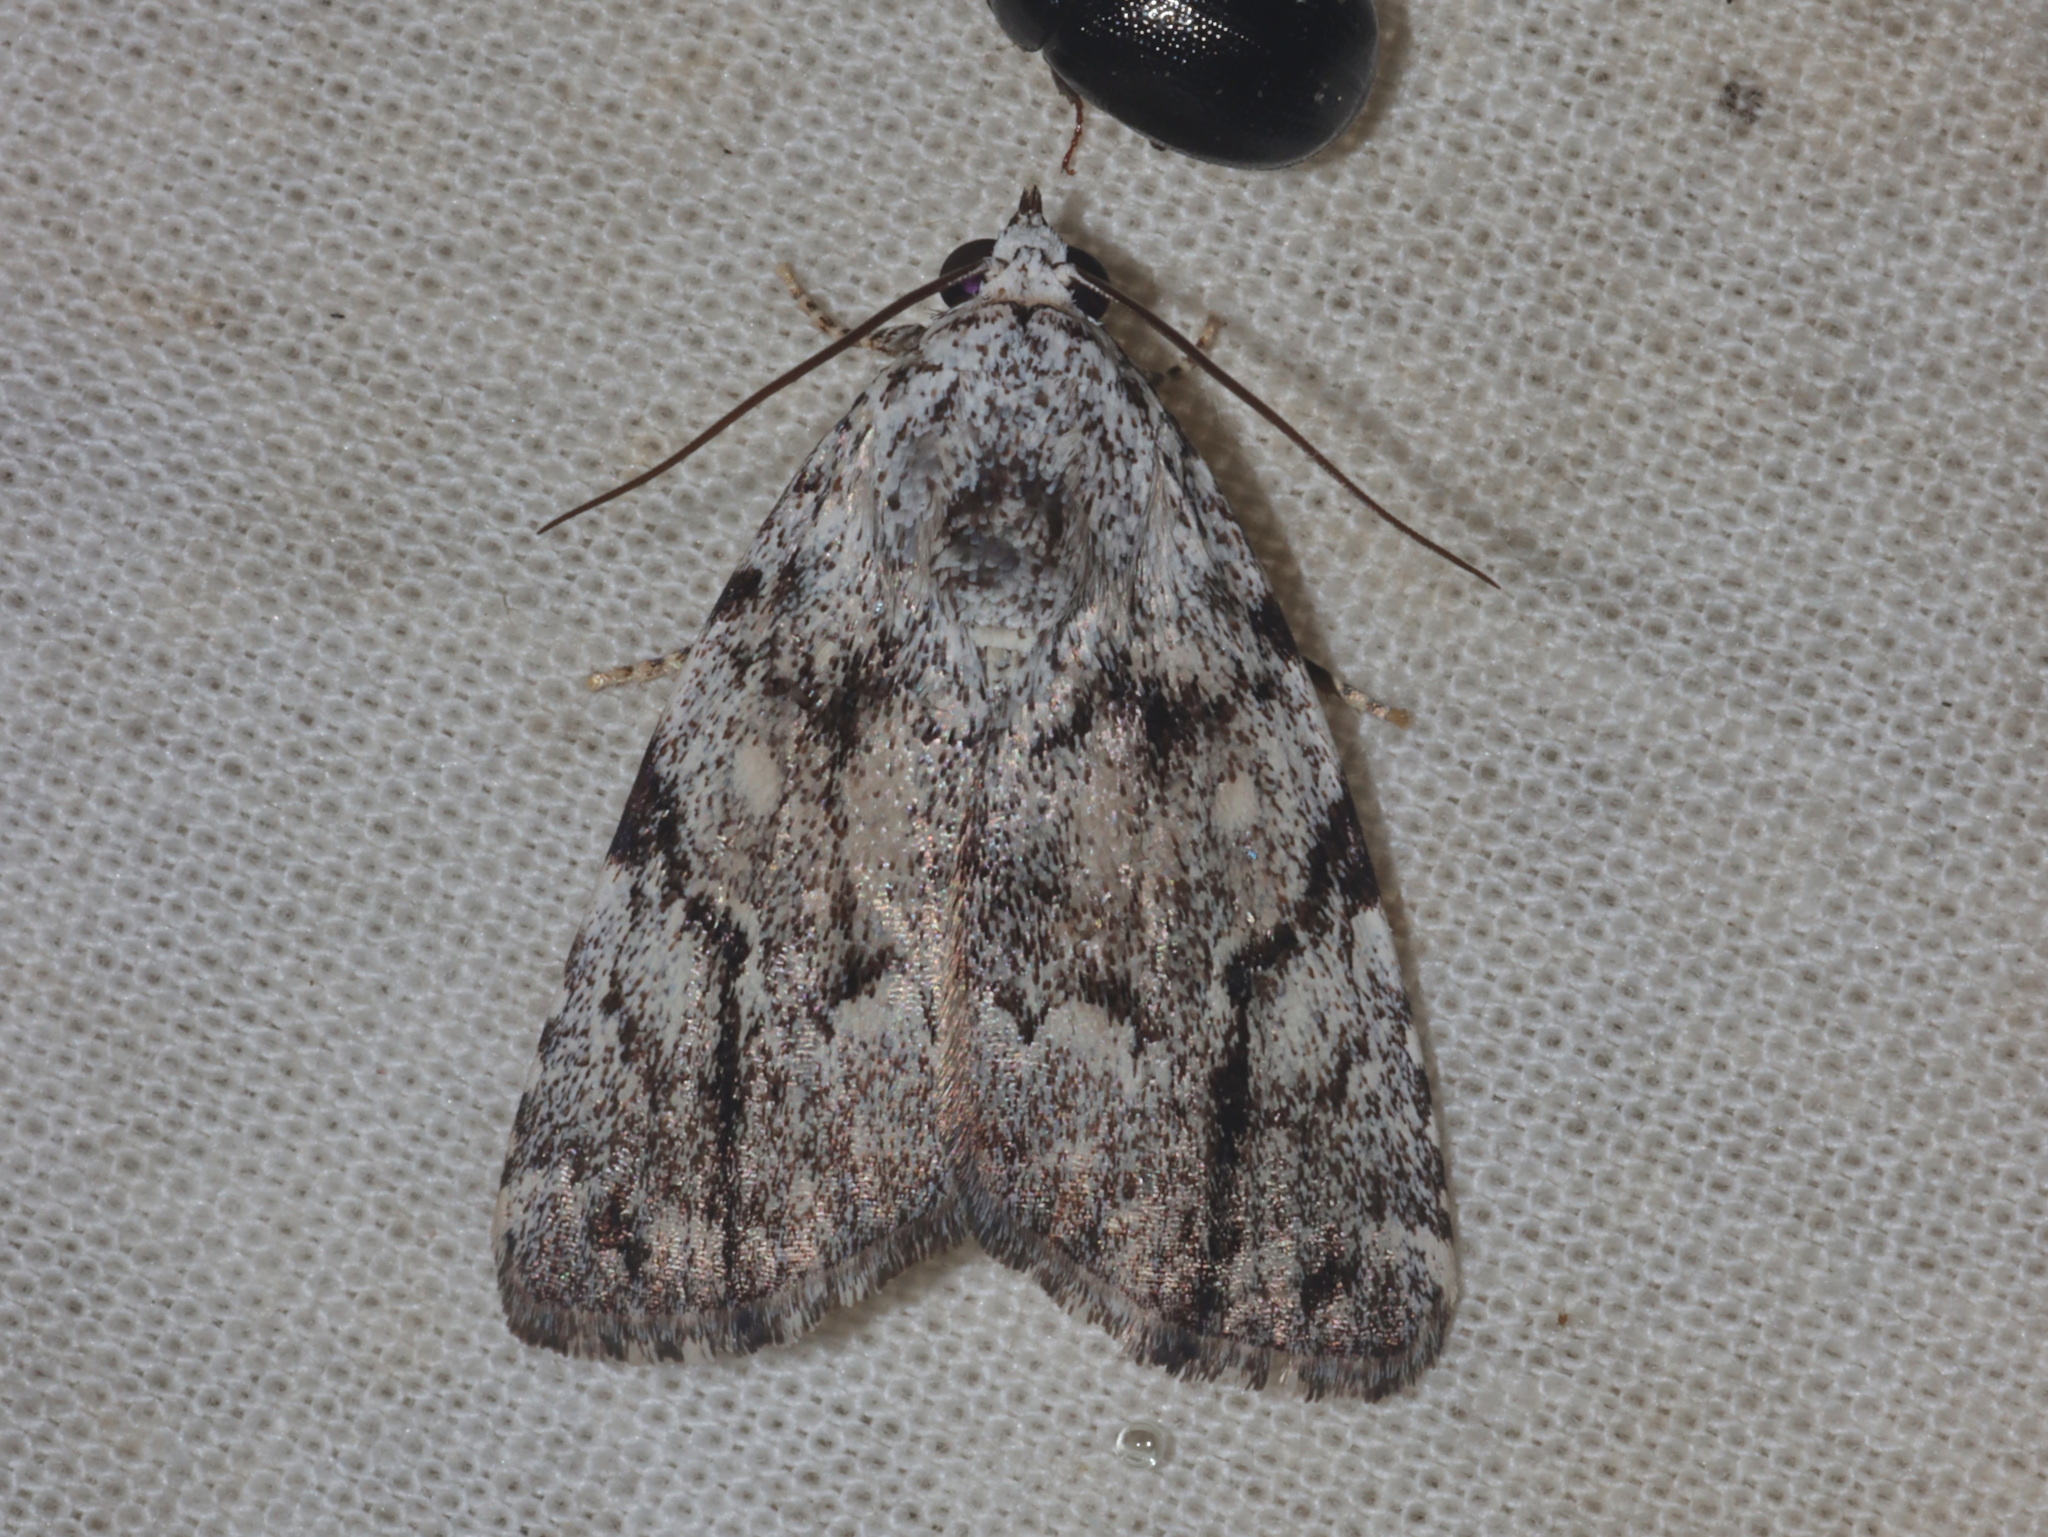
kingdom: Animalia
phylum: Arthropoda
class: Insecta
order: Lepidoptera
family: Noctuidae
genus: Tycracona
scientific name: Tycracona obliqua
